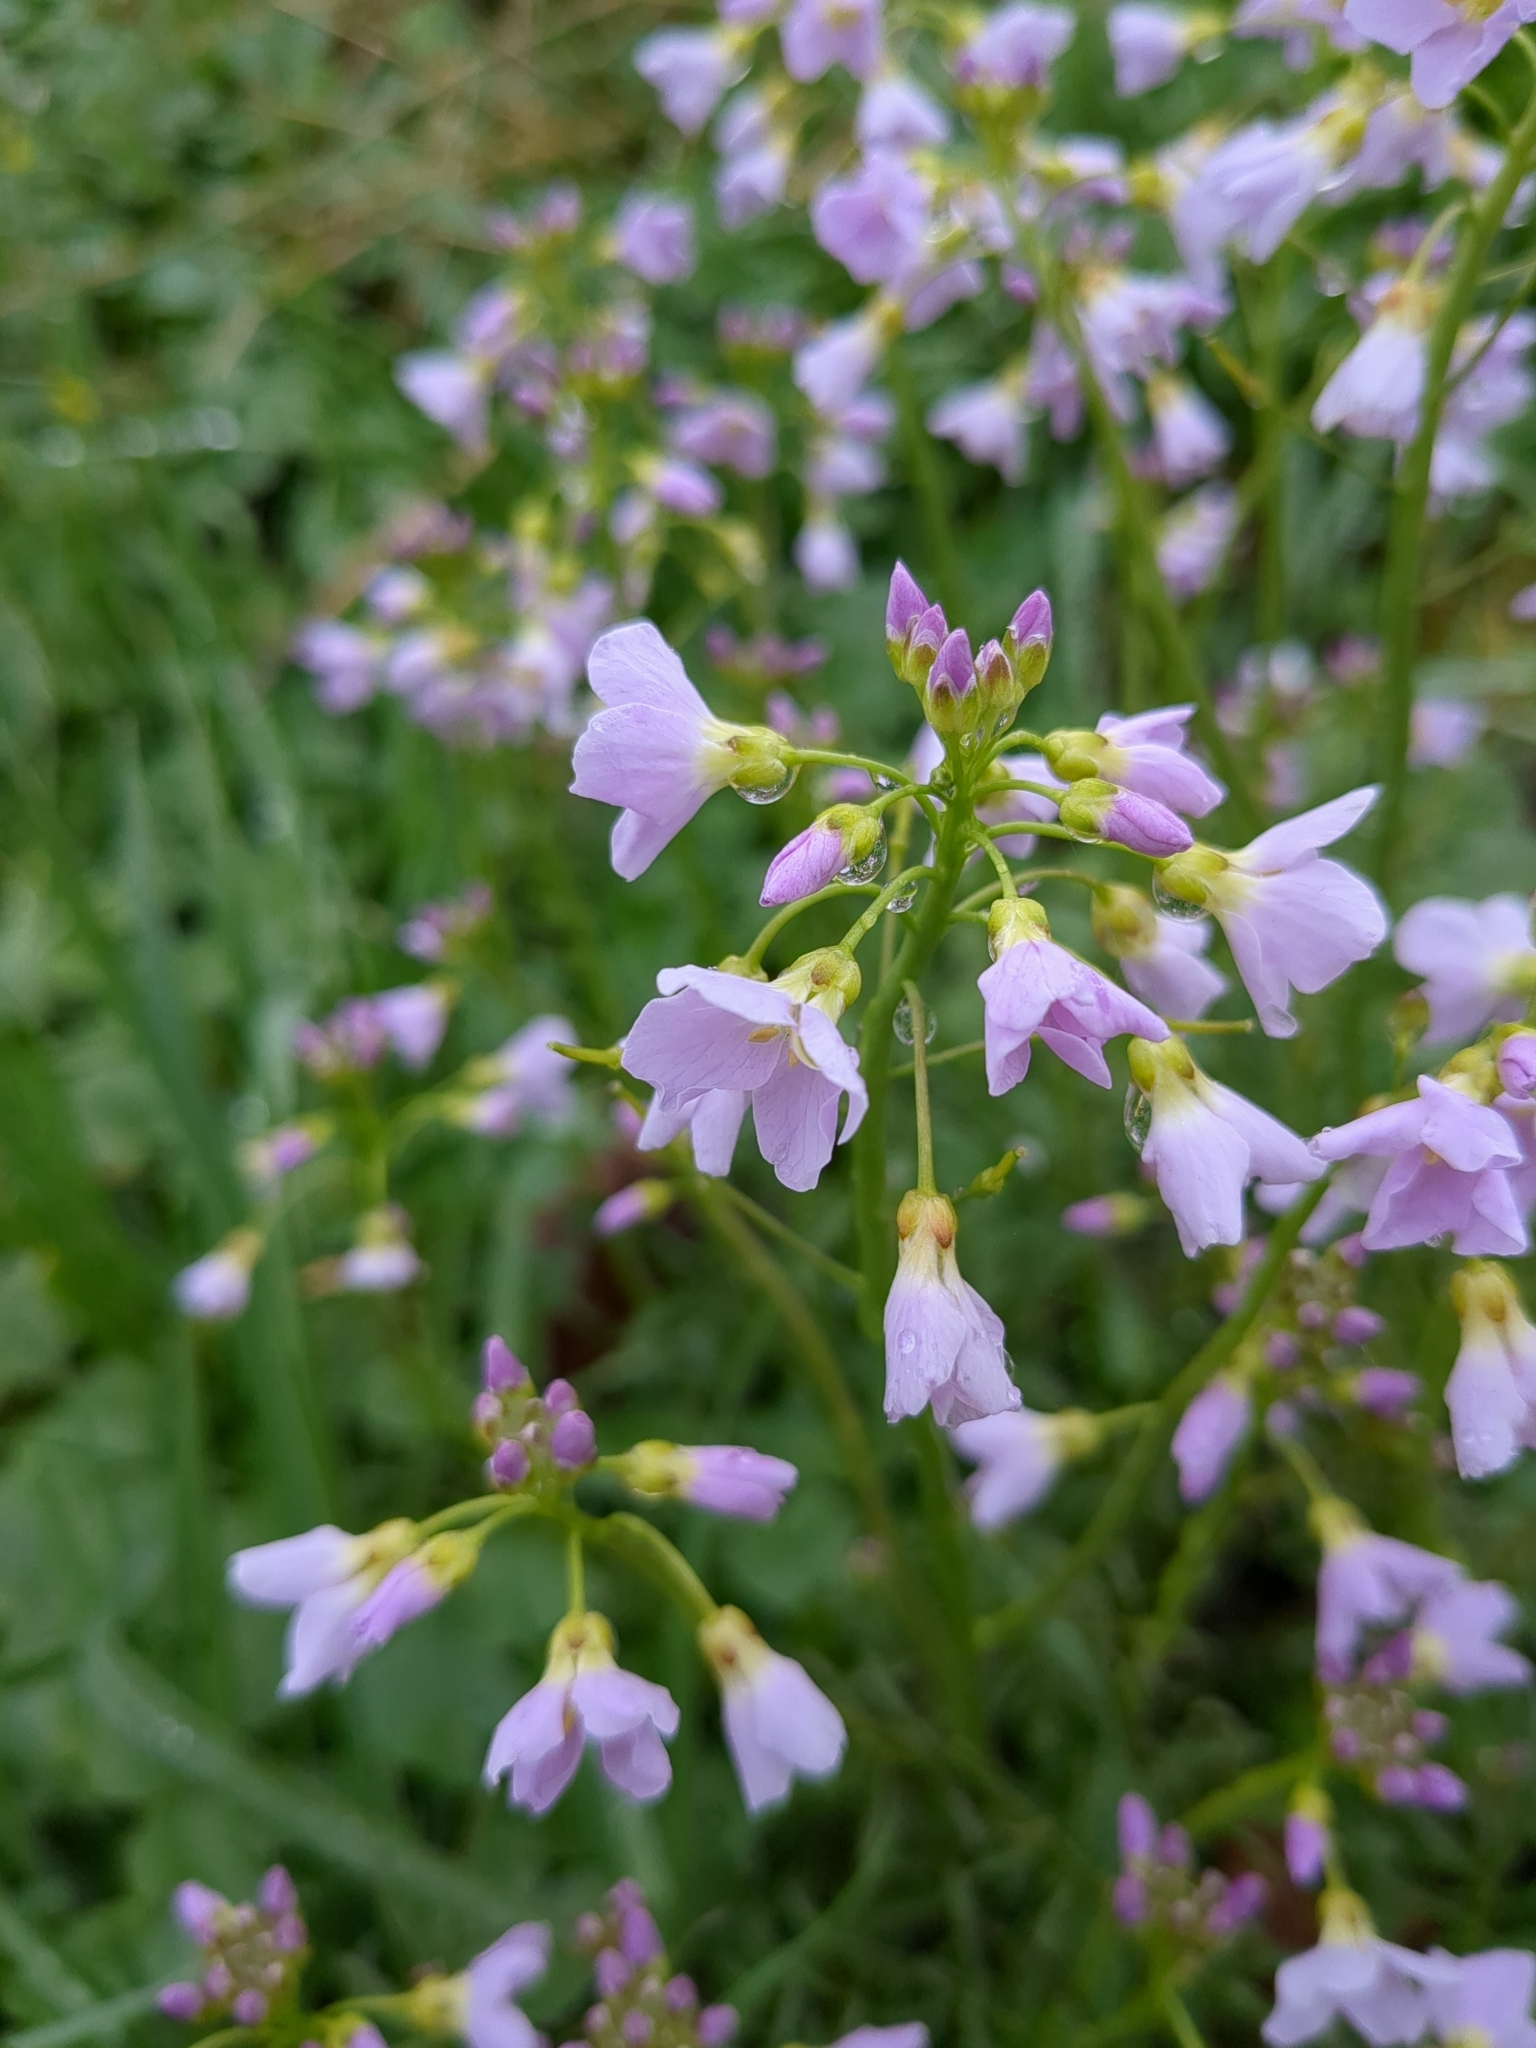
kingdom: Plantae
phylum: Tracheophyta
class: Magnoliopsida
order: Brassicales
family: Brassicaceae
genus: Cardamine
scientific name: Cardamine pratensis
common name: Cuckoo flower
